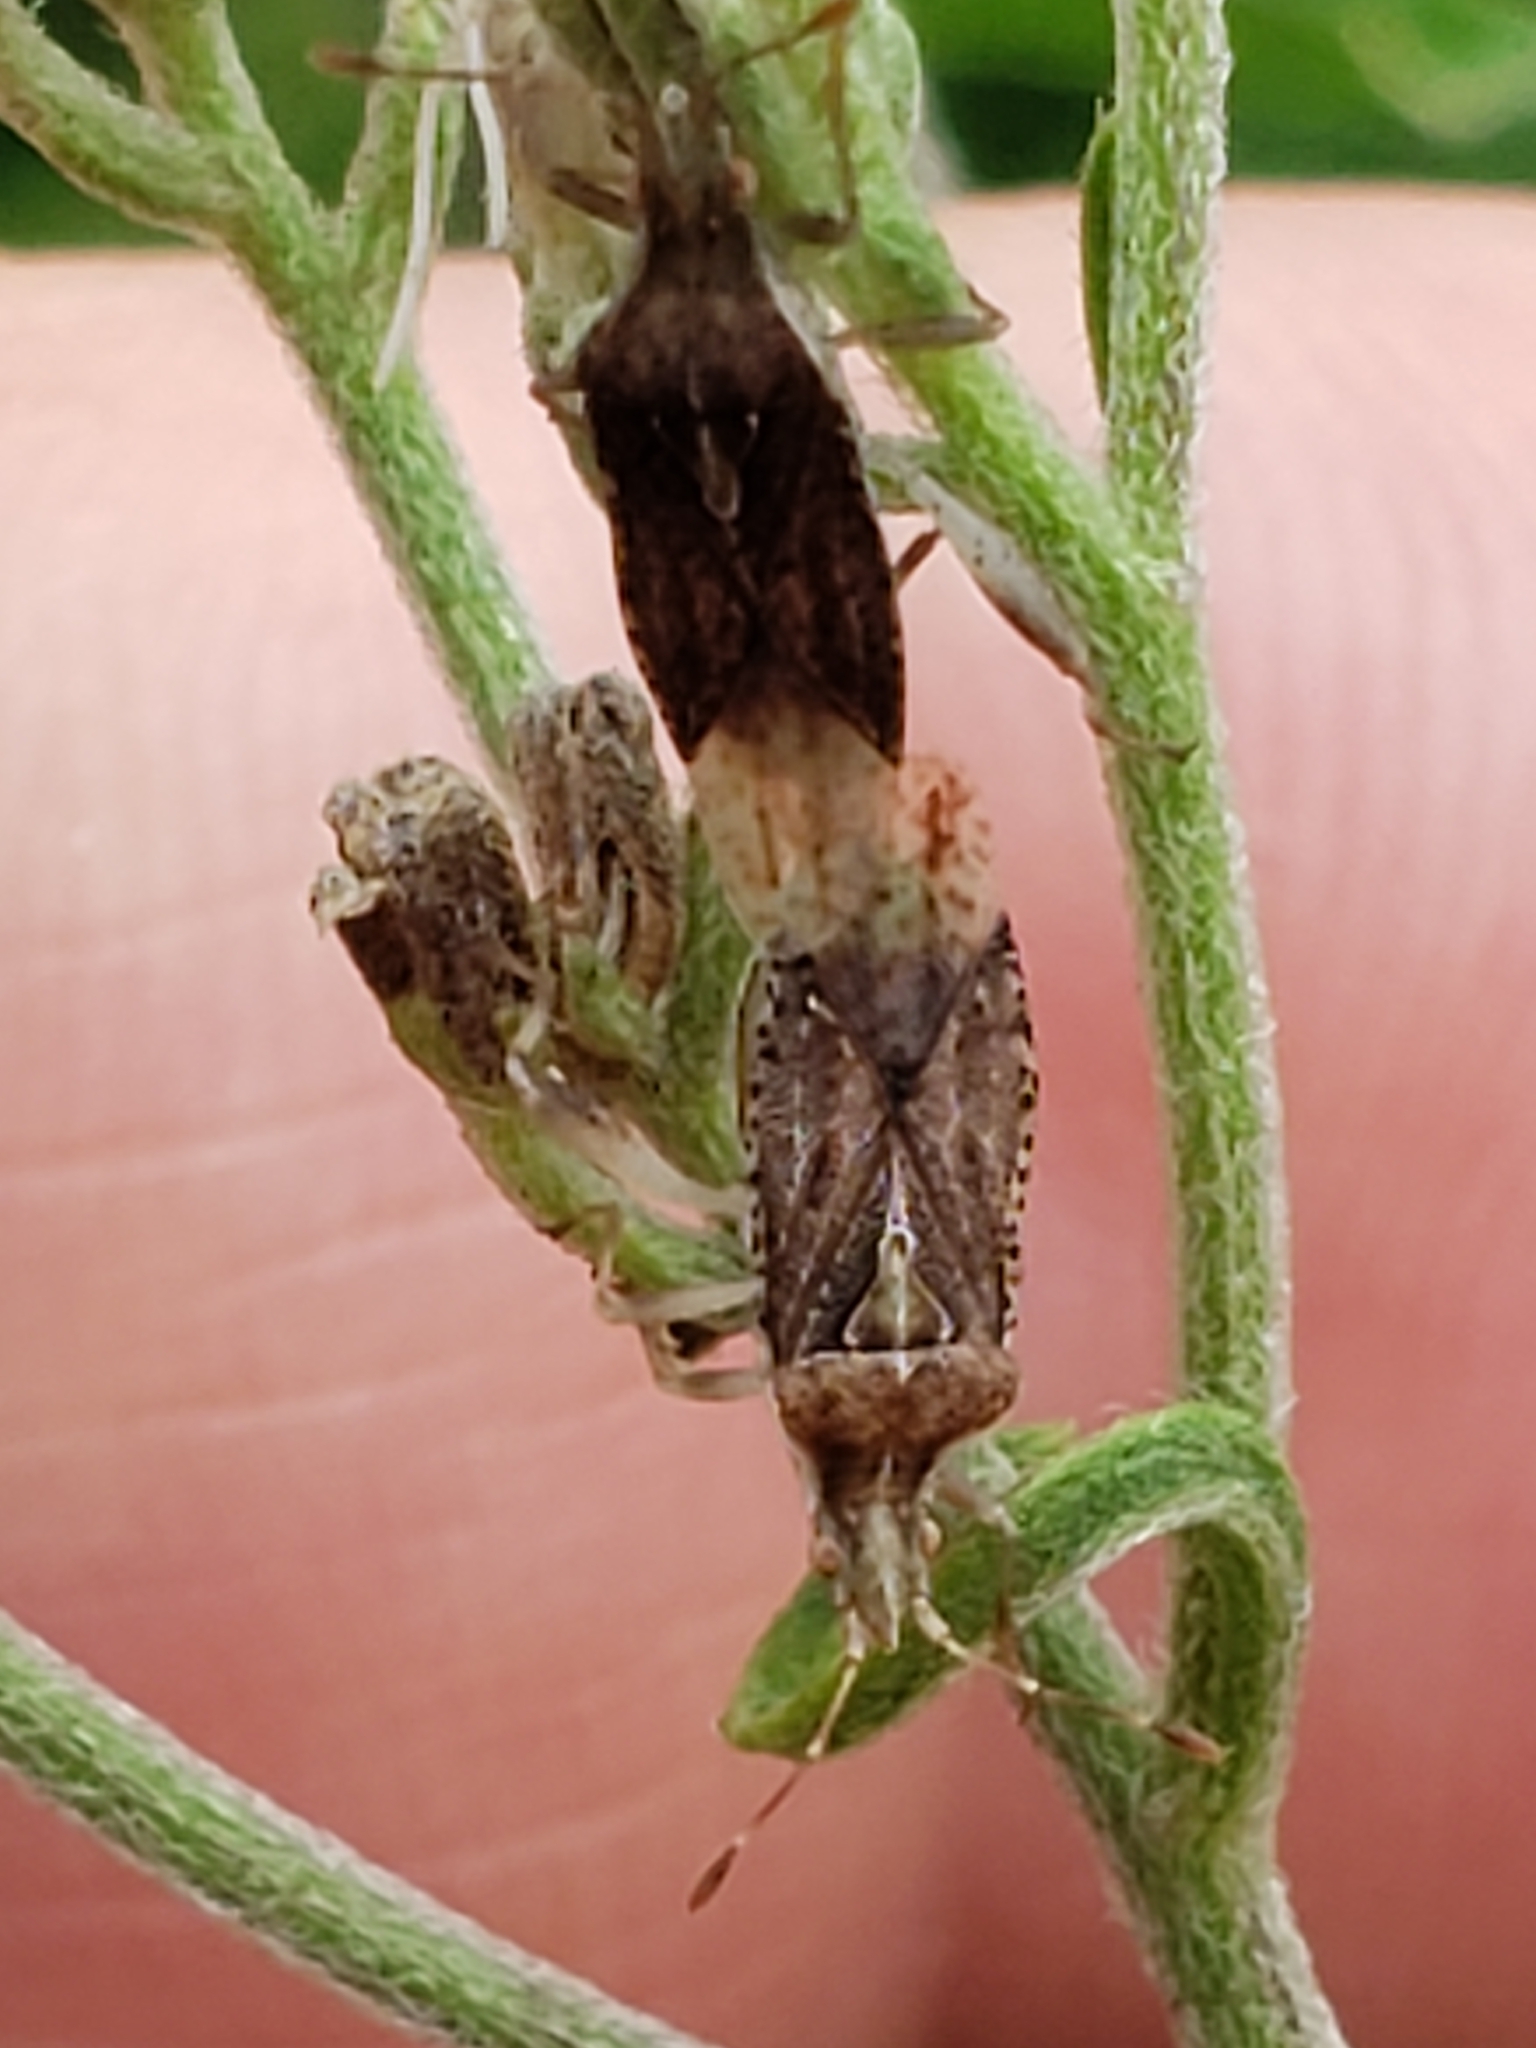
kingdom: Animalia
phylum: Arthropoda
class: Insecta
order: Hemiptera
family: Rhopalidae
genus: Harmostes
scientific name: Harmostes fraterculus
